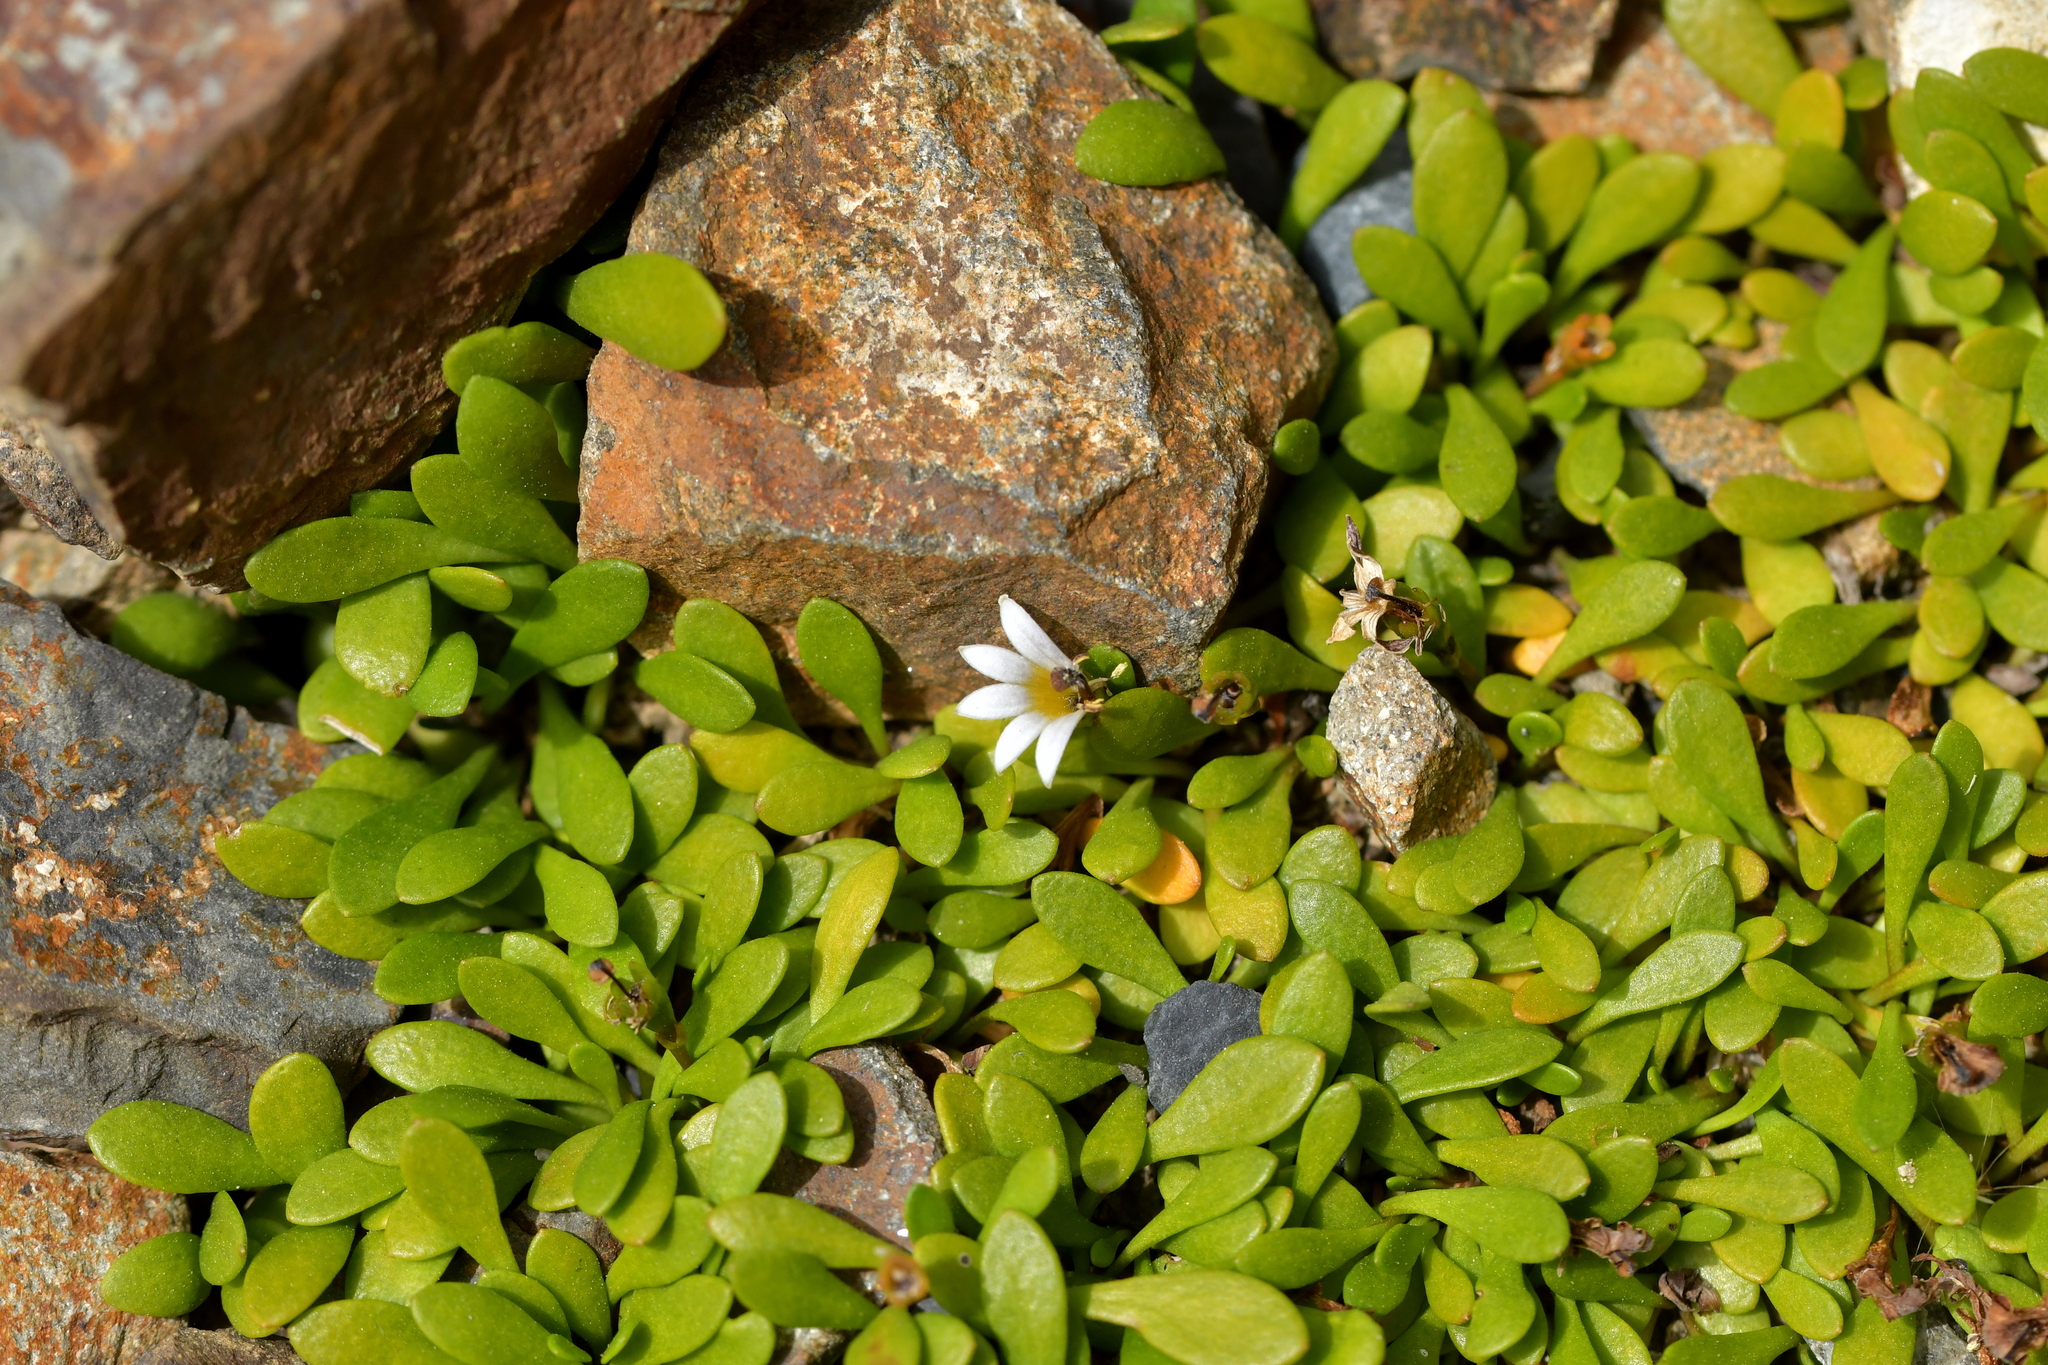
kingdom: Plantae
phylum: Tracheophyta
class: Magnoliopsida
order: Asterales
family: Goodeniaceae
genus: Goodenia
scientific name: Goodenia radicans
